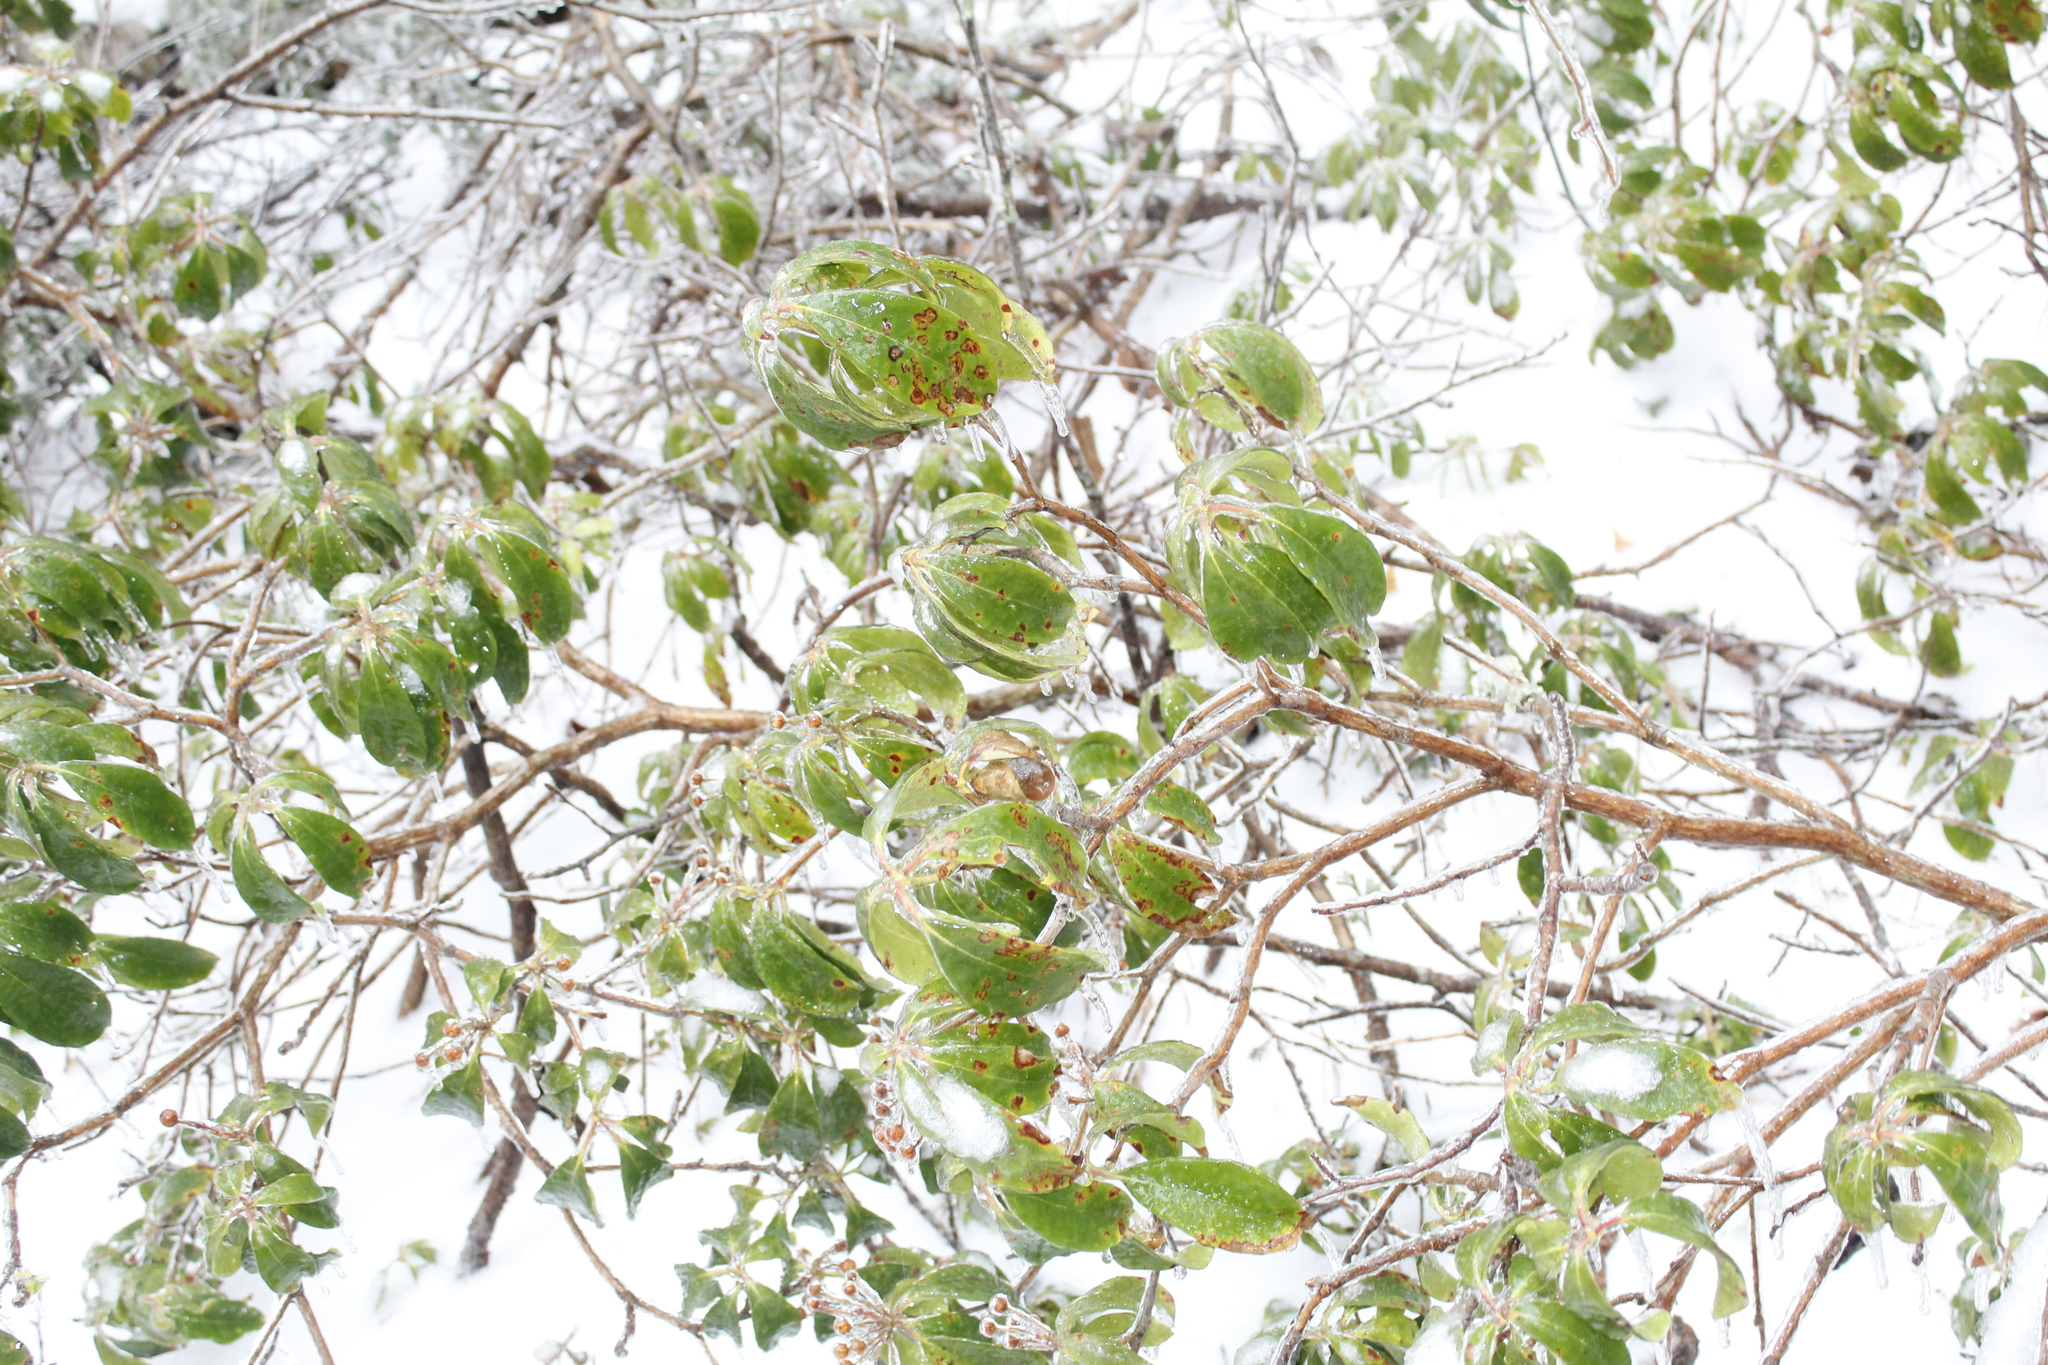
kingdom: Plantae
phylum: Tracheophyta
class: Magnoliopsida
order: Ericales
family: Ericaceae
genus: Kalmia
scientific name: Kalmia latifolia
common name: Mountain-laurel
